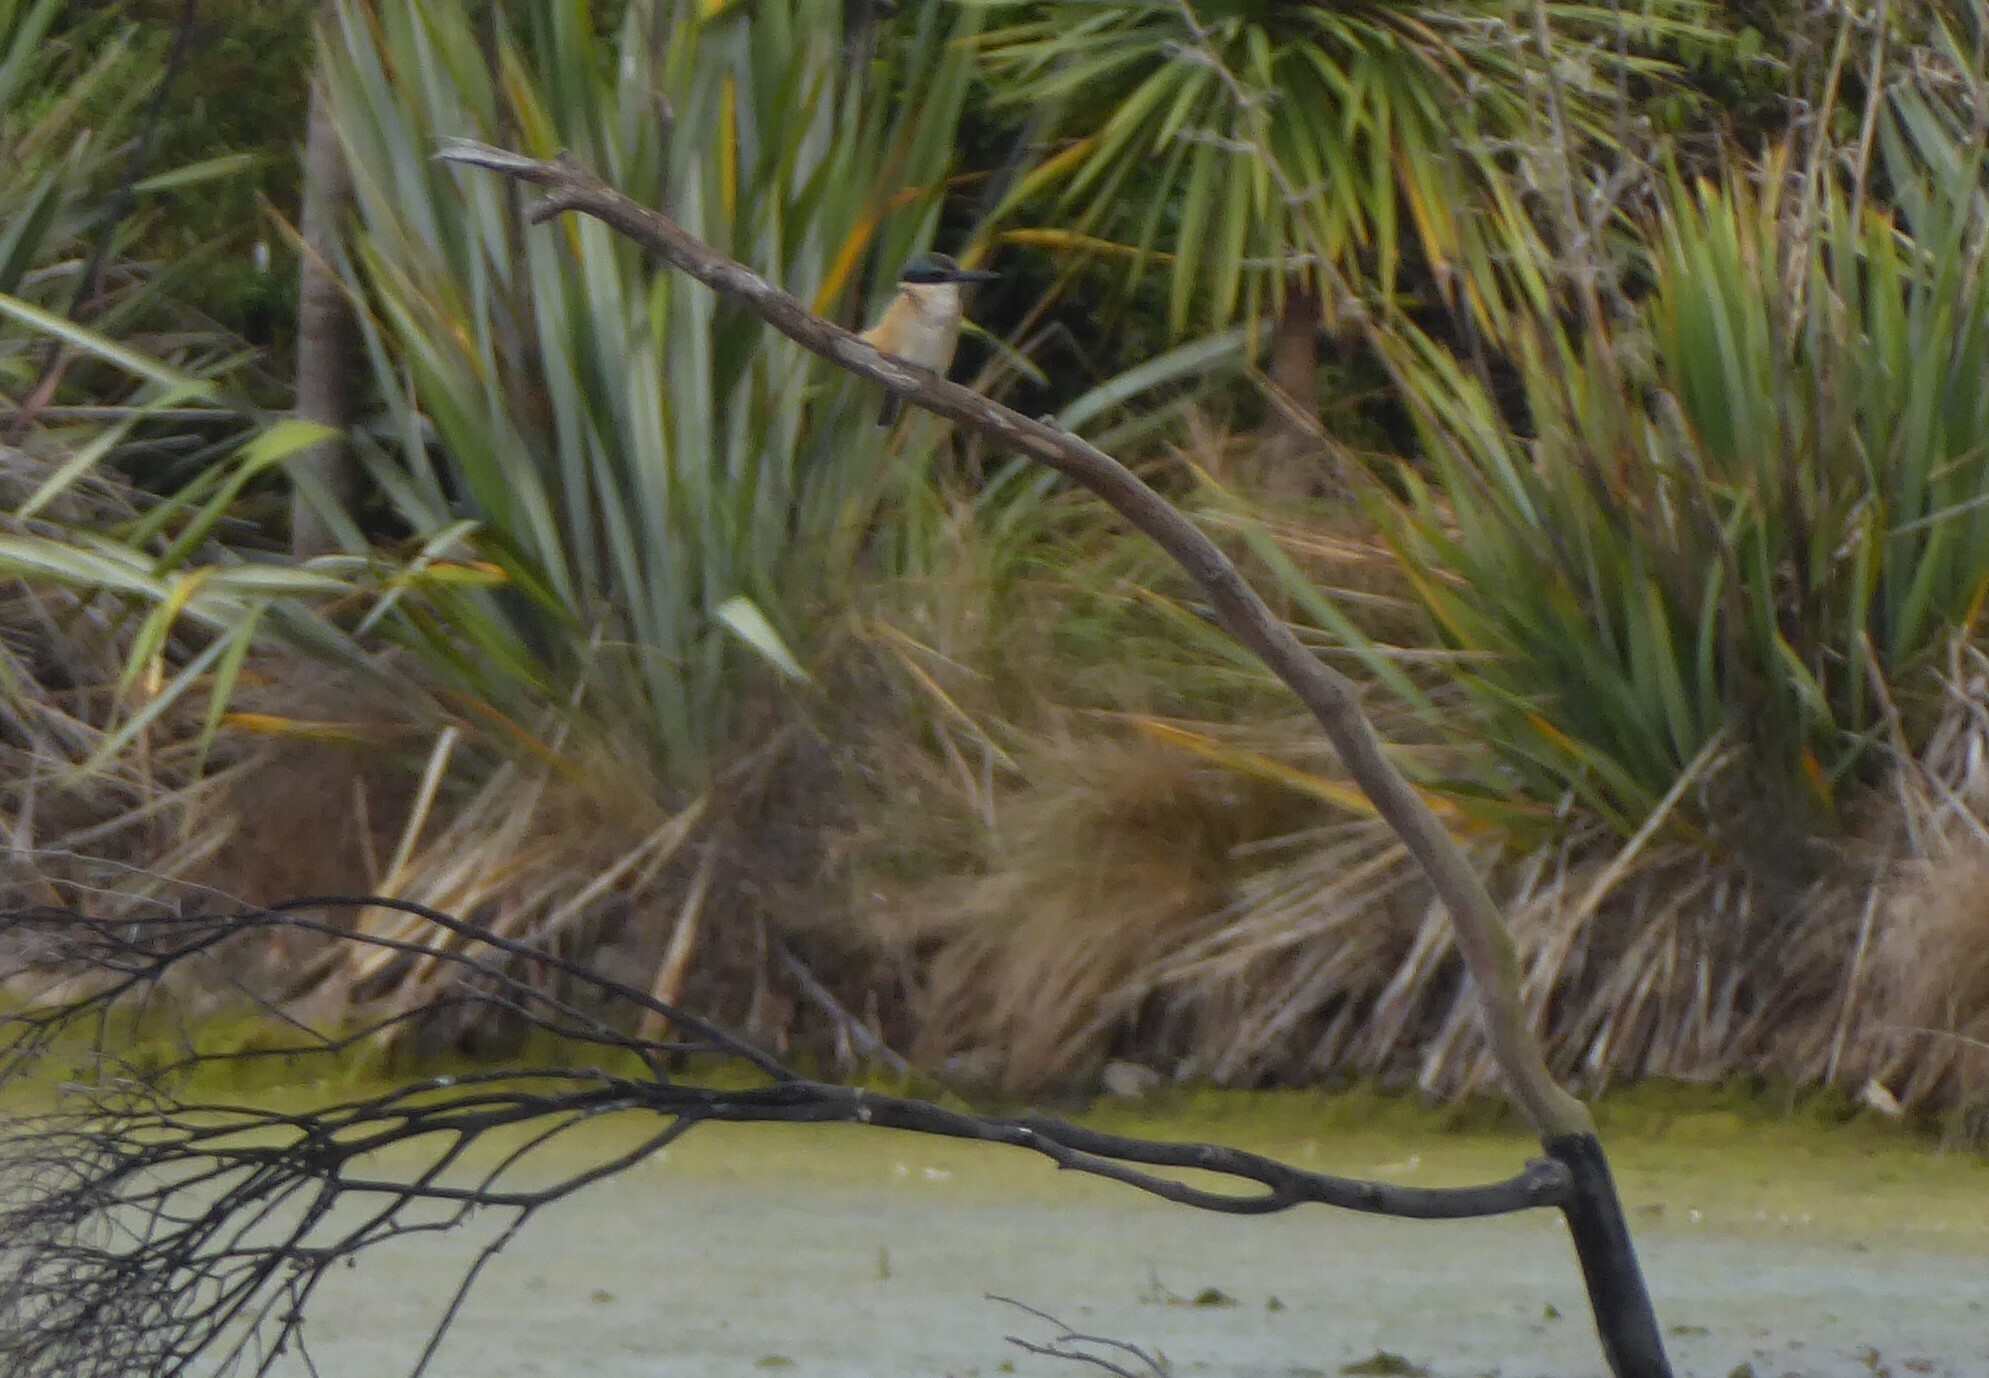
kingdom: Animalia
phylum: Chordata
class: Aves
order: Coraciiformes
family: Alcedinidae
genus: Todiramphus
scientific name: Todiramphus sanctus
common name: Sacred kingfisher
